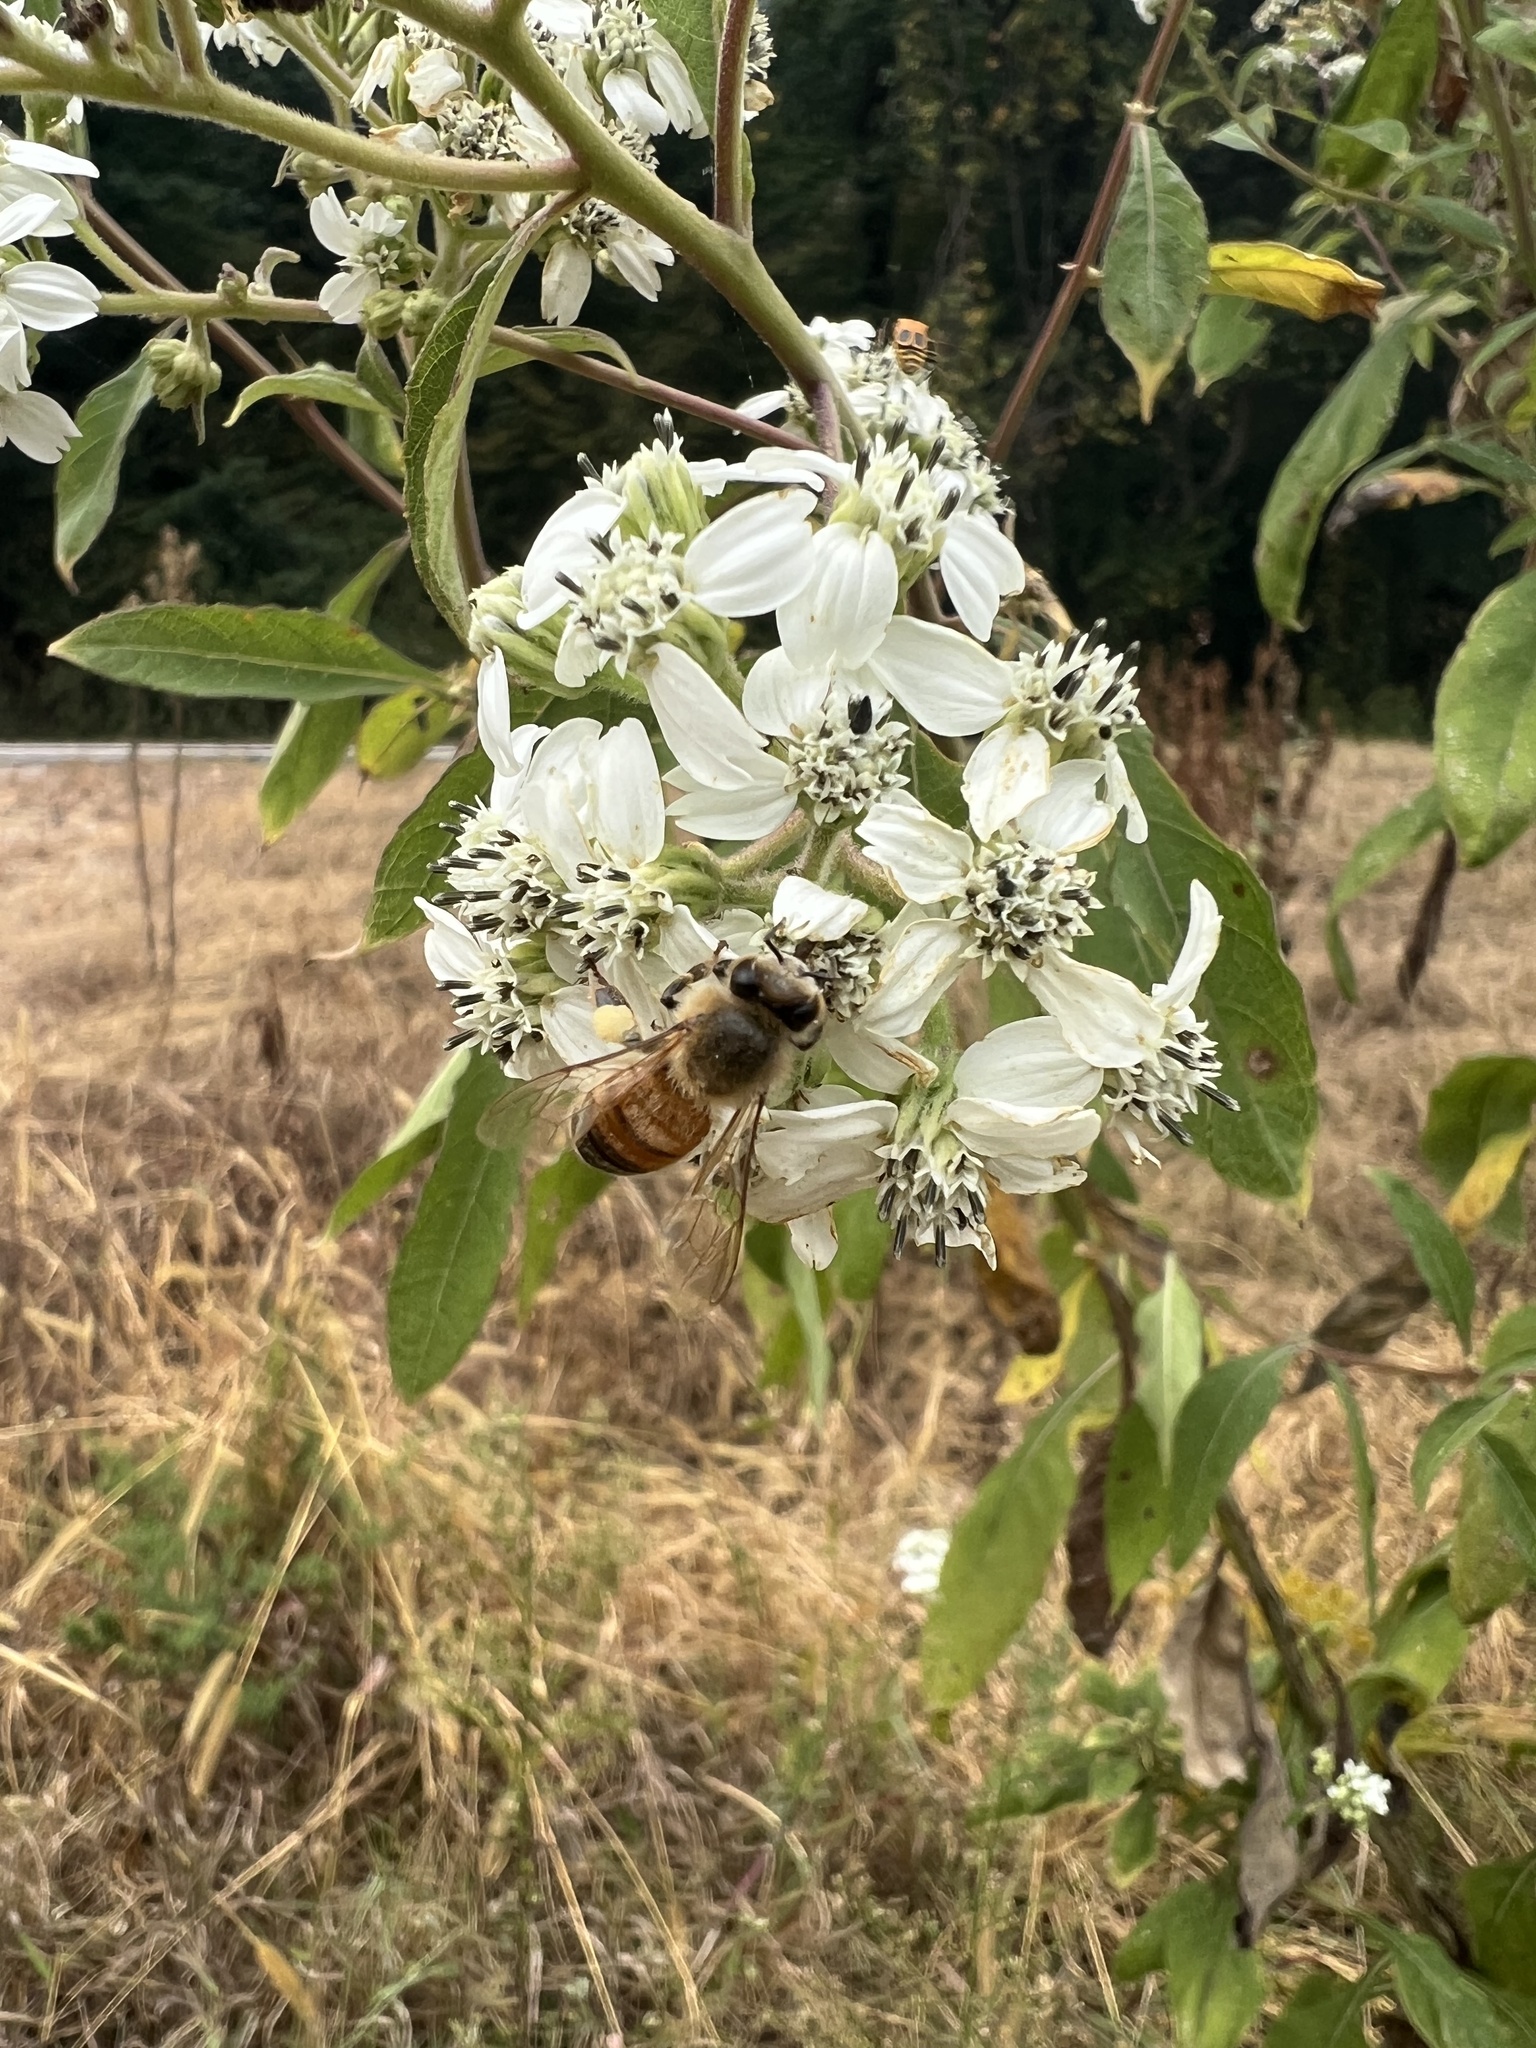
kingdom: Animalia
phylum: Arthropoda
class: Insecta
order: Hymenoptera
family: Apidae
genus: Apis
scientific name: Apis mellifera
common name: Honey bee
